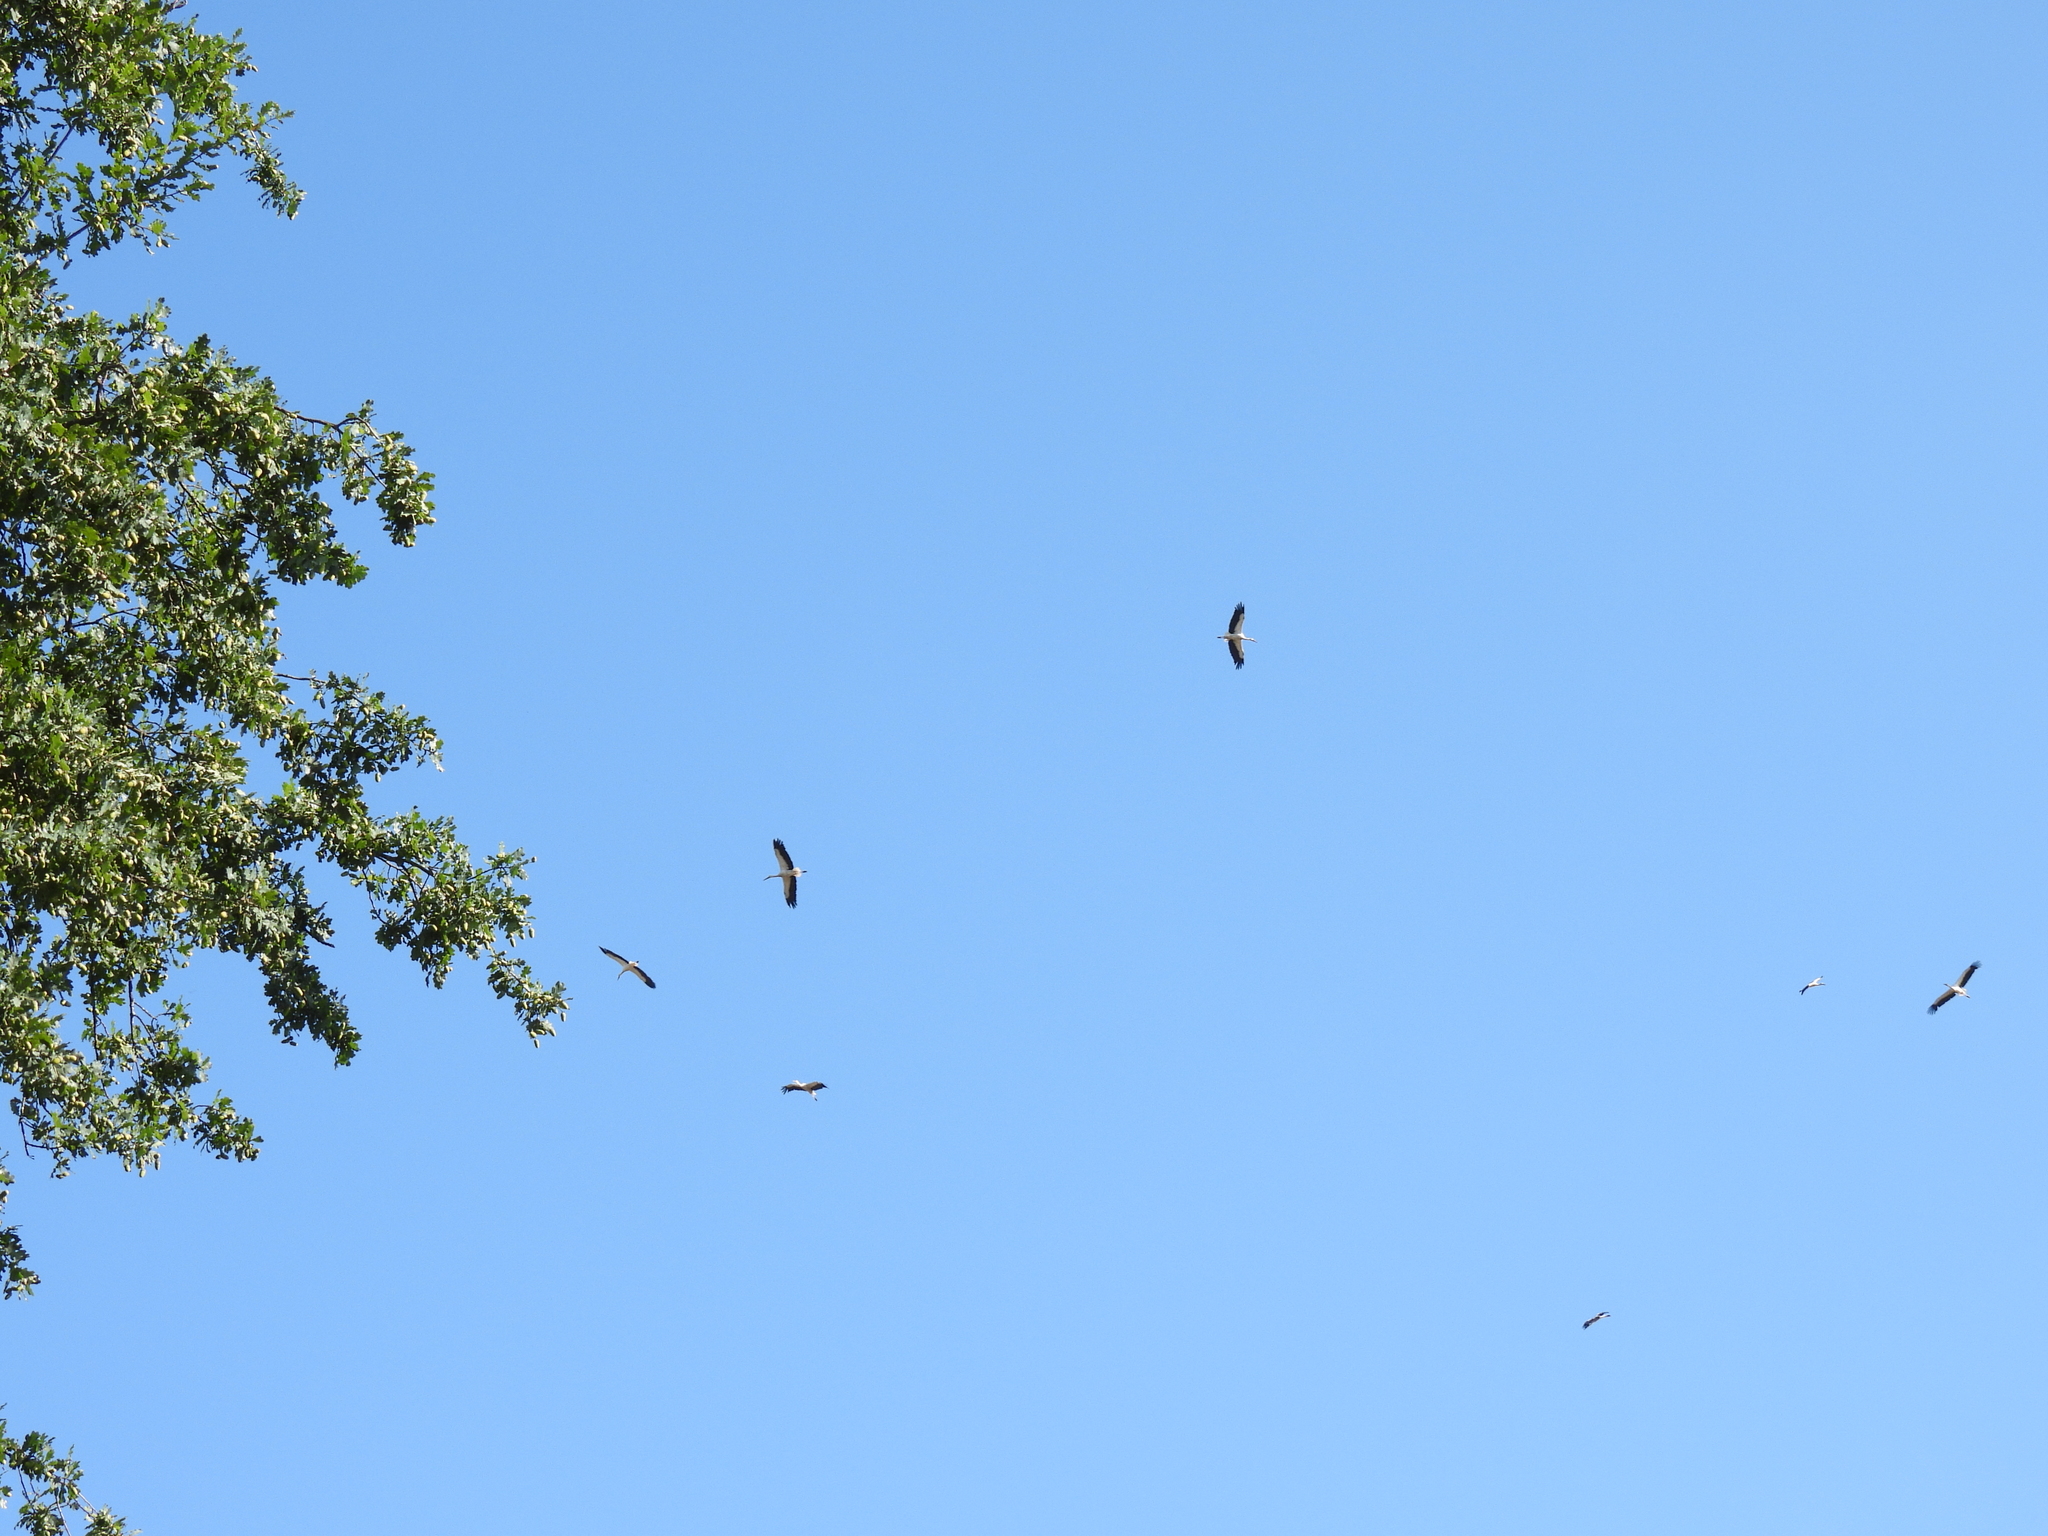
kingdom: Animalia
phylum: Chordata
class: Aves
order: Ciconiiformes
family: Ciconiidae
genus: Ciconia
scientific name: Ciconia ciconia
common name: White stork
